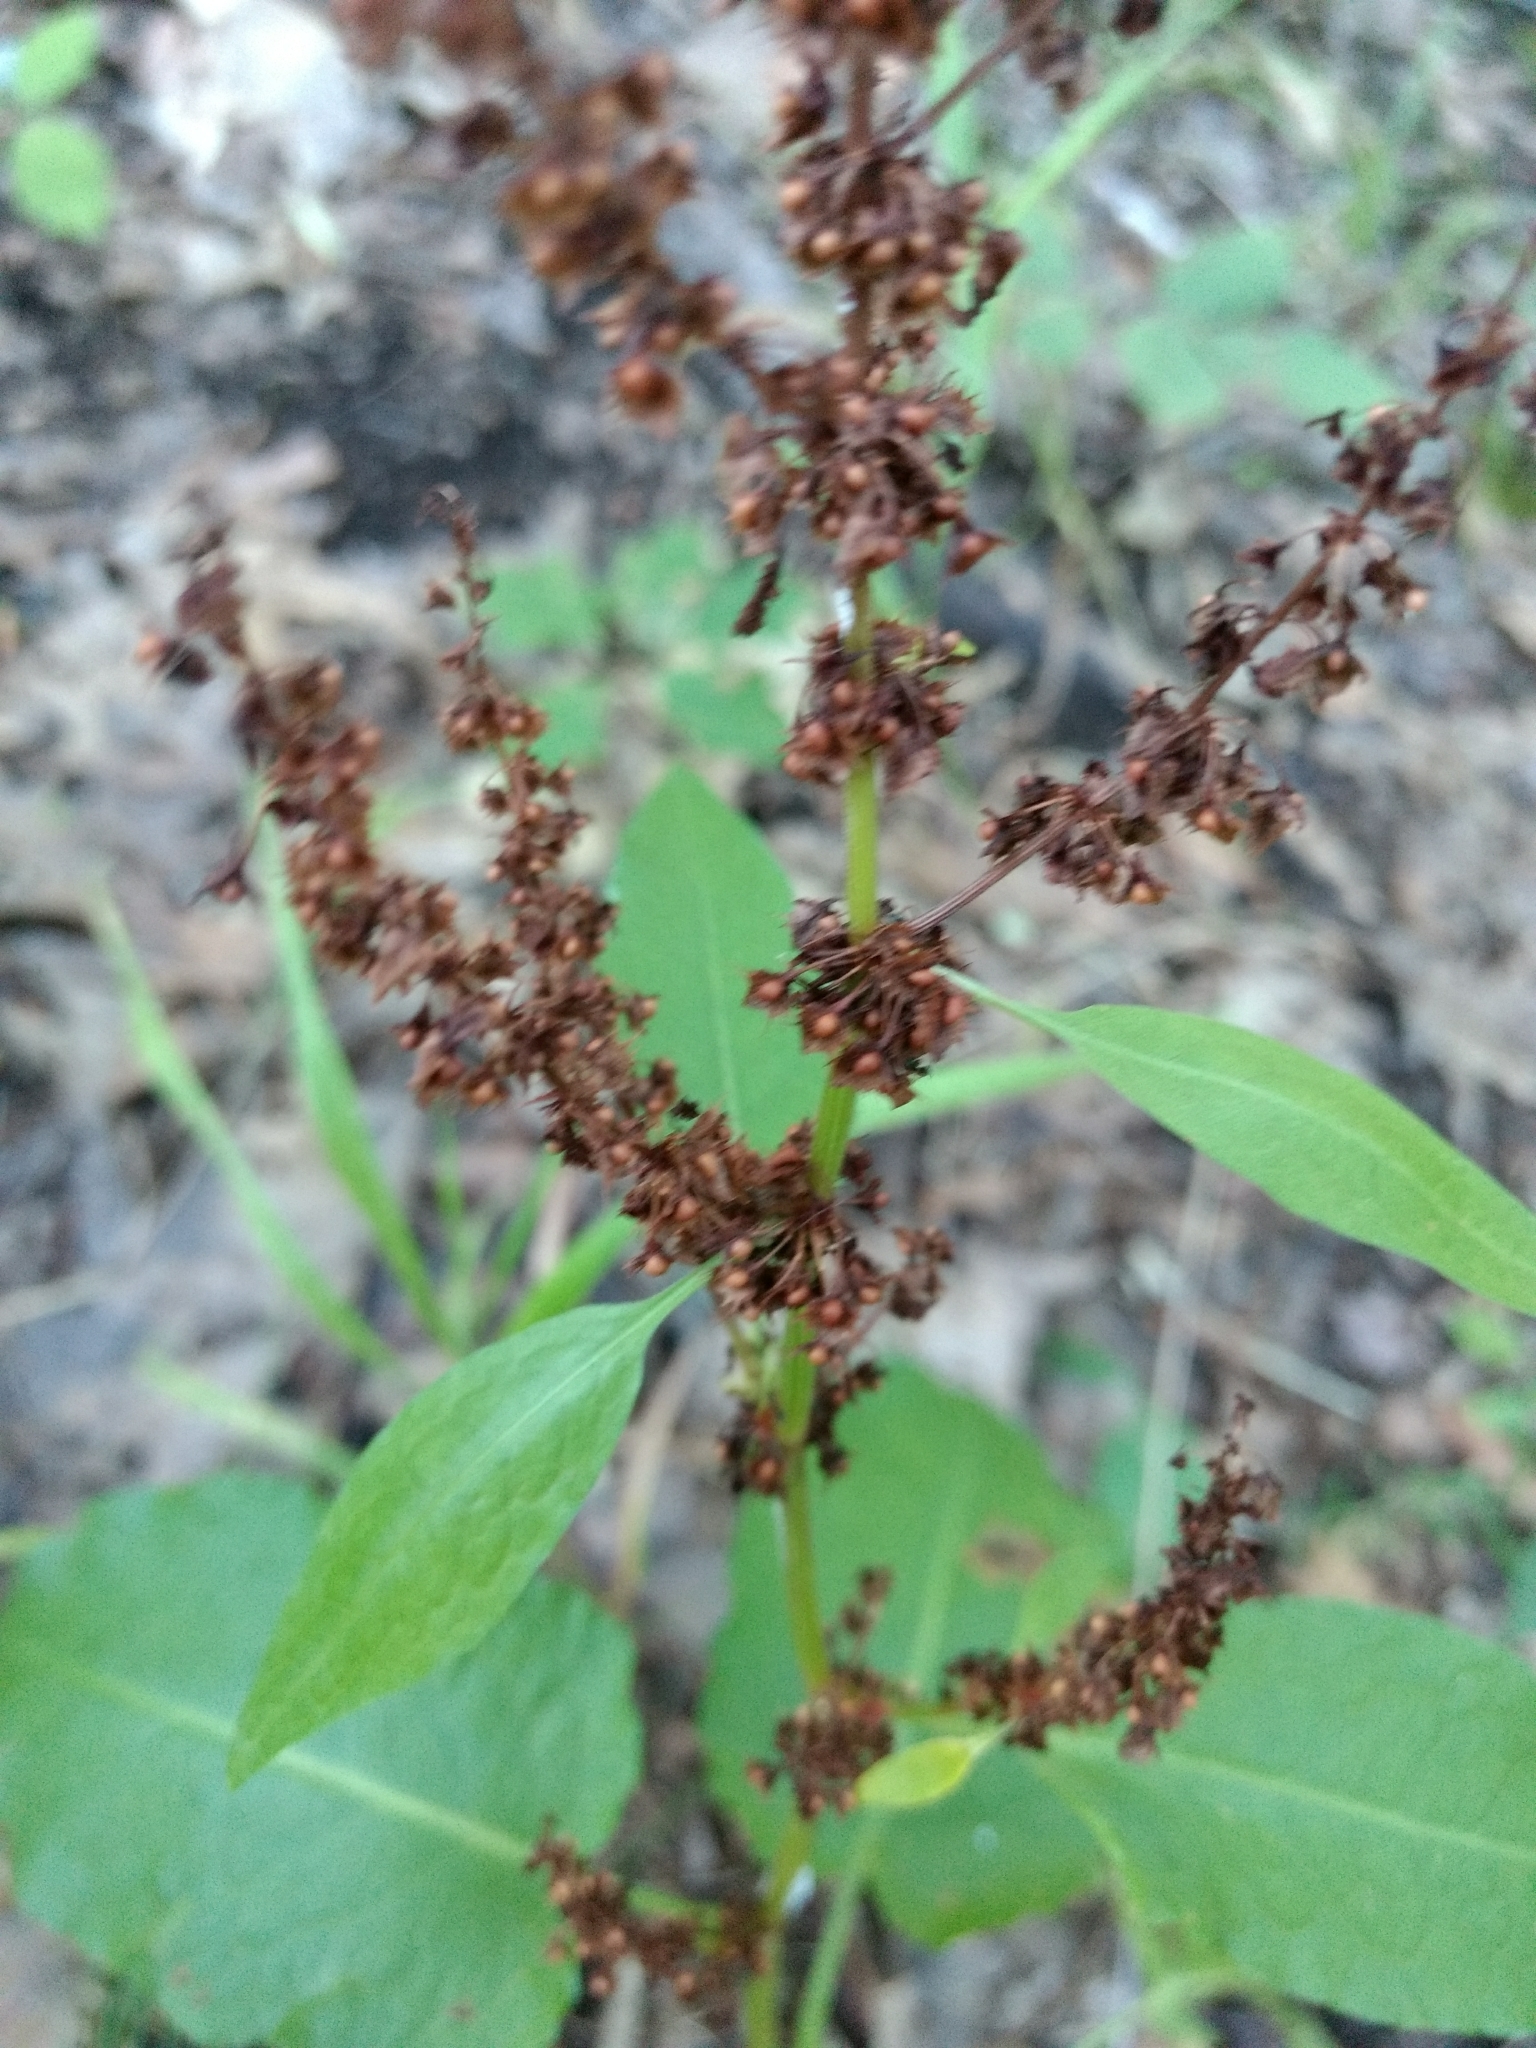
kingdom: Plantae
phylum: Tracheophyta
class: Magnoliopsida
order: Caryophyllales
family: Polygonaceae
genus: Rumex
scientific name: Rumex obtusifolius
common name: Bitter dock
